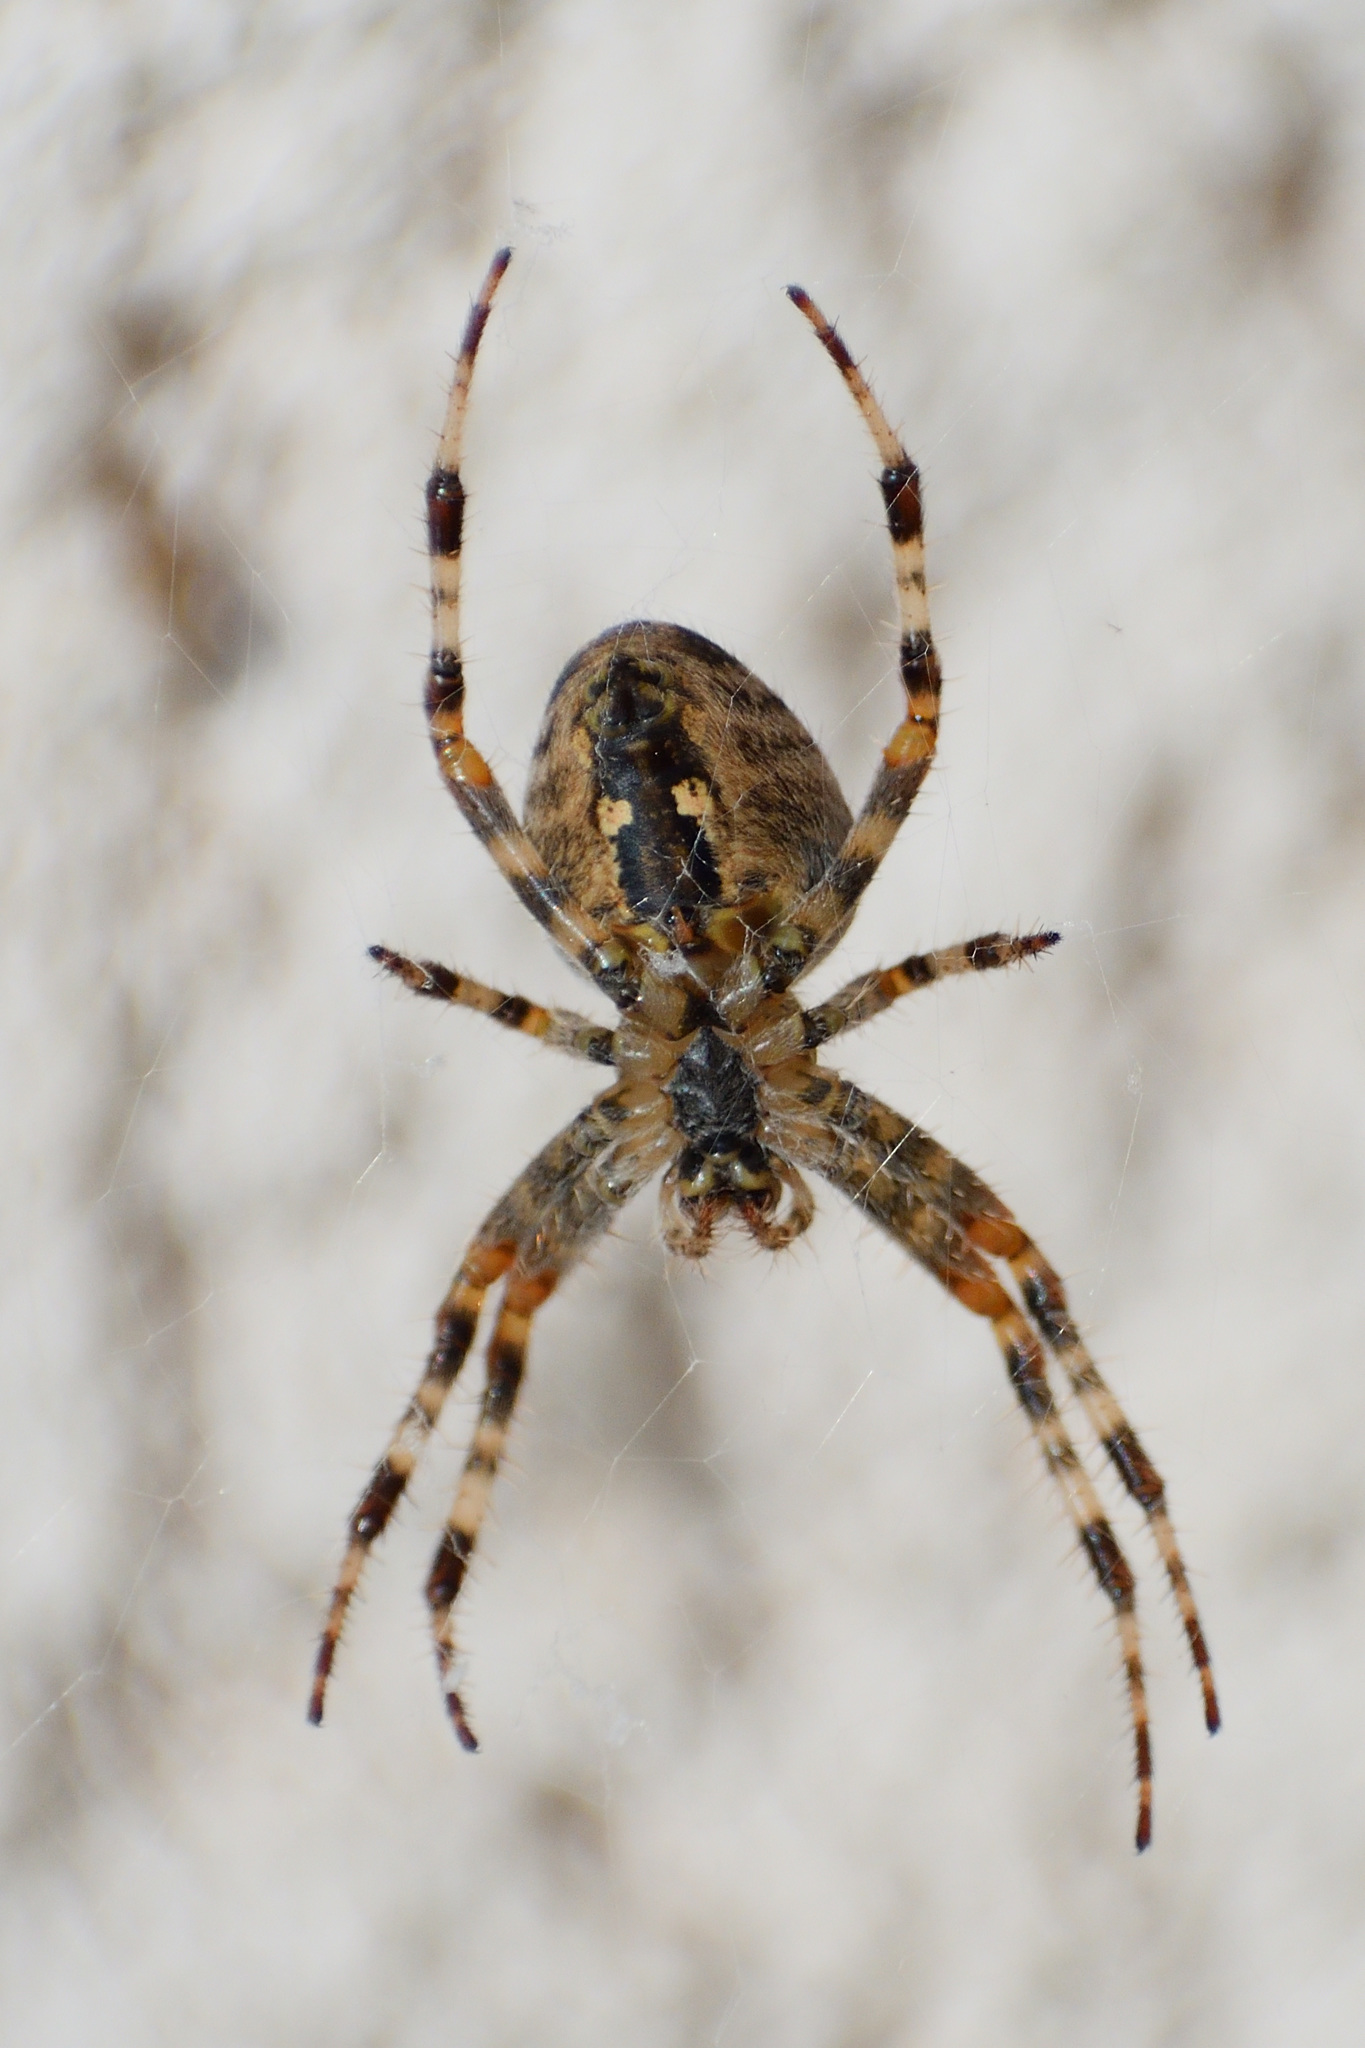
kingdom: Animalia
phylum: Arthropoda
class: Arachnida
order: Araneae
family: Araneidae
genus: Araneus
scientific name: Araneus diadematus
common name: Cross orbweaver
